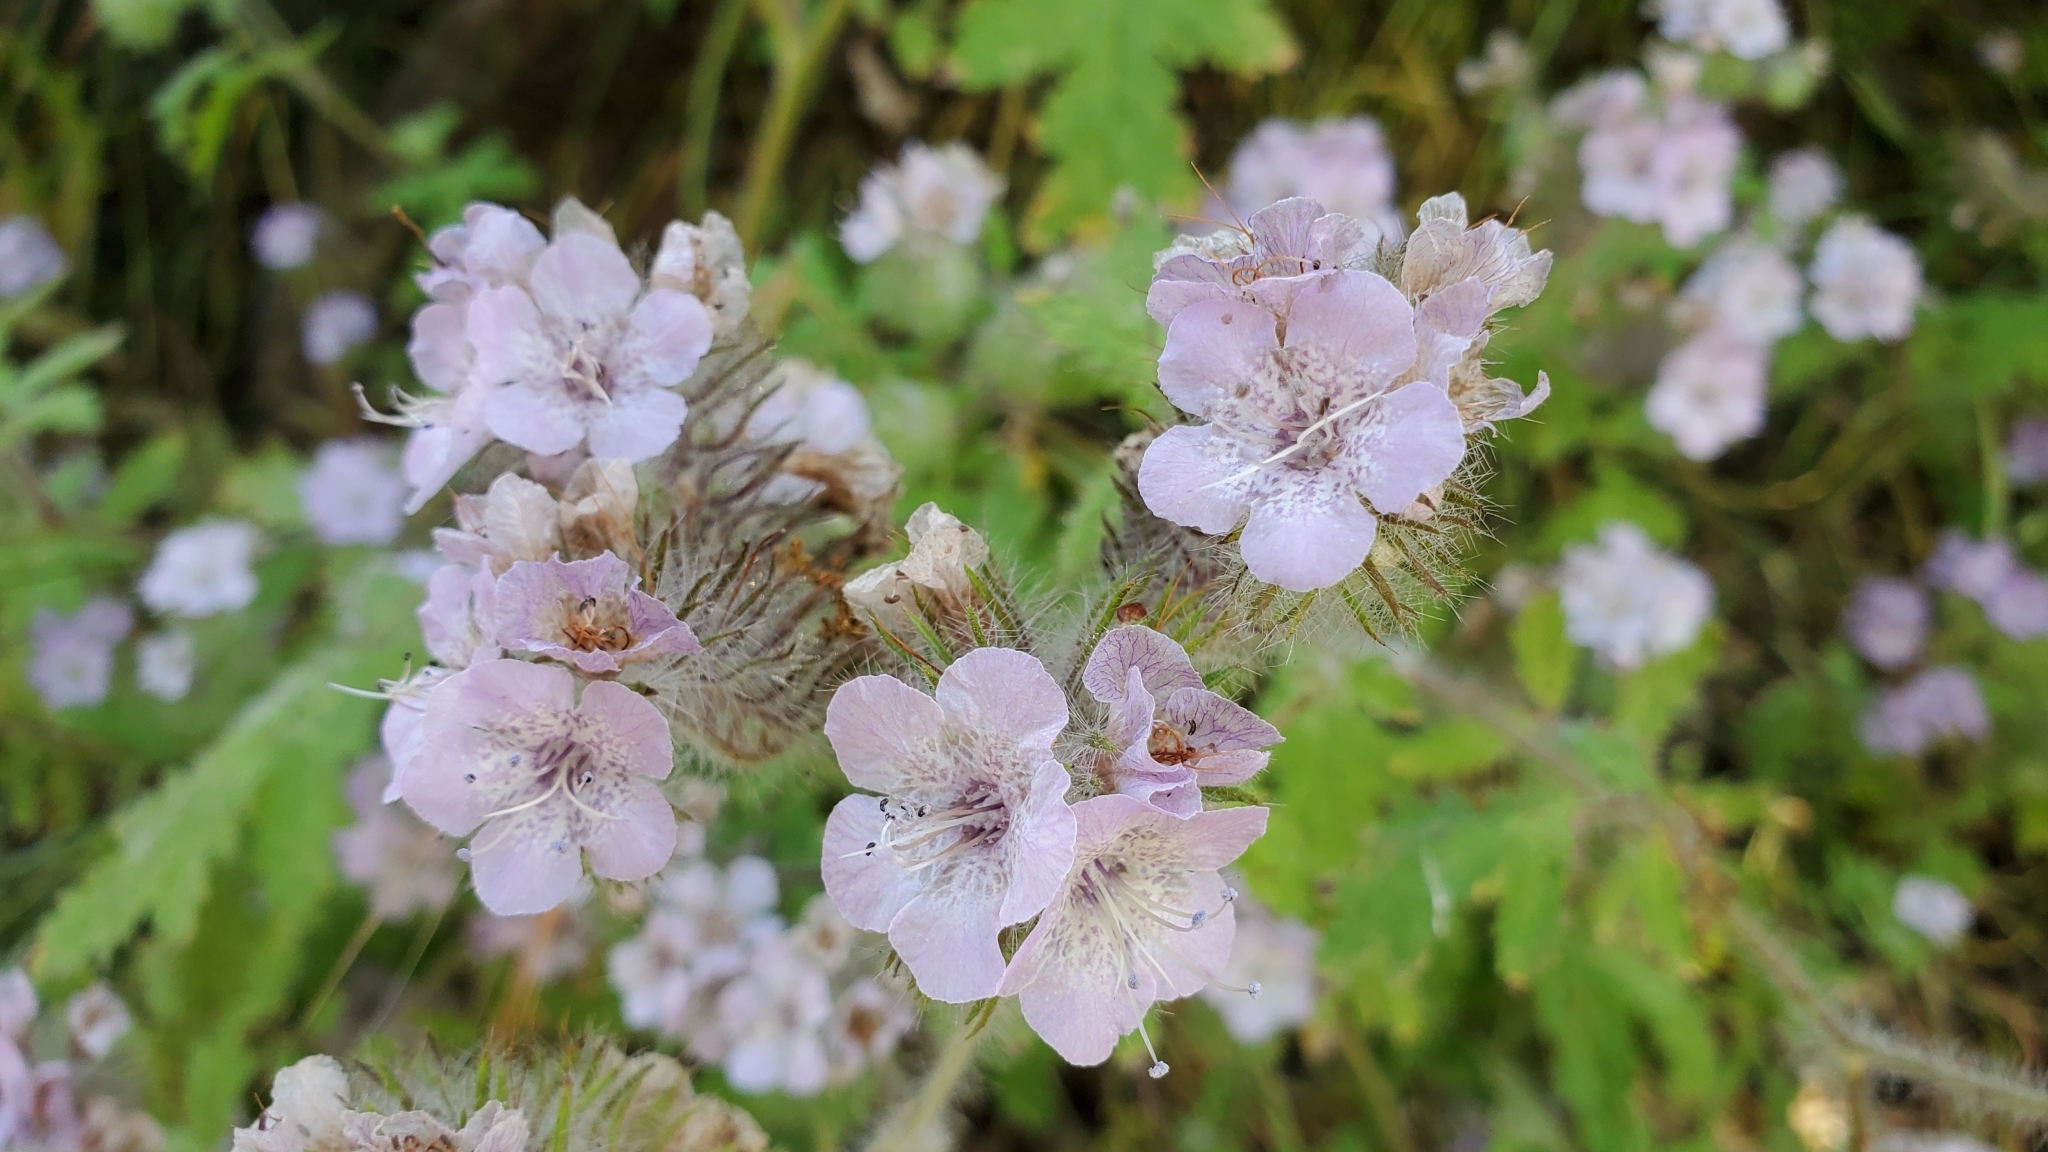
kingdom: Plantae
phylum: Tracheophyta
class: Magnoliopsida
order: Boraginales
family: Hydrophyllaceae
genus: Phacelia
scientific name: Phacelia cicutaria
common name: Caterpillar phacelia
